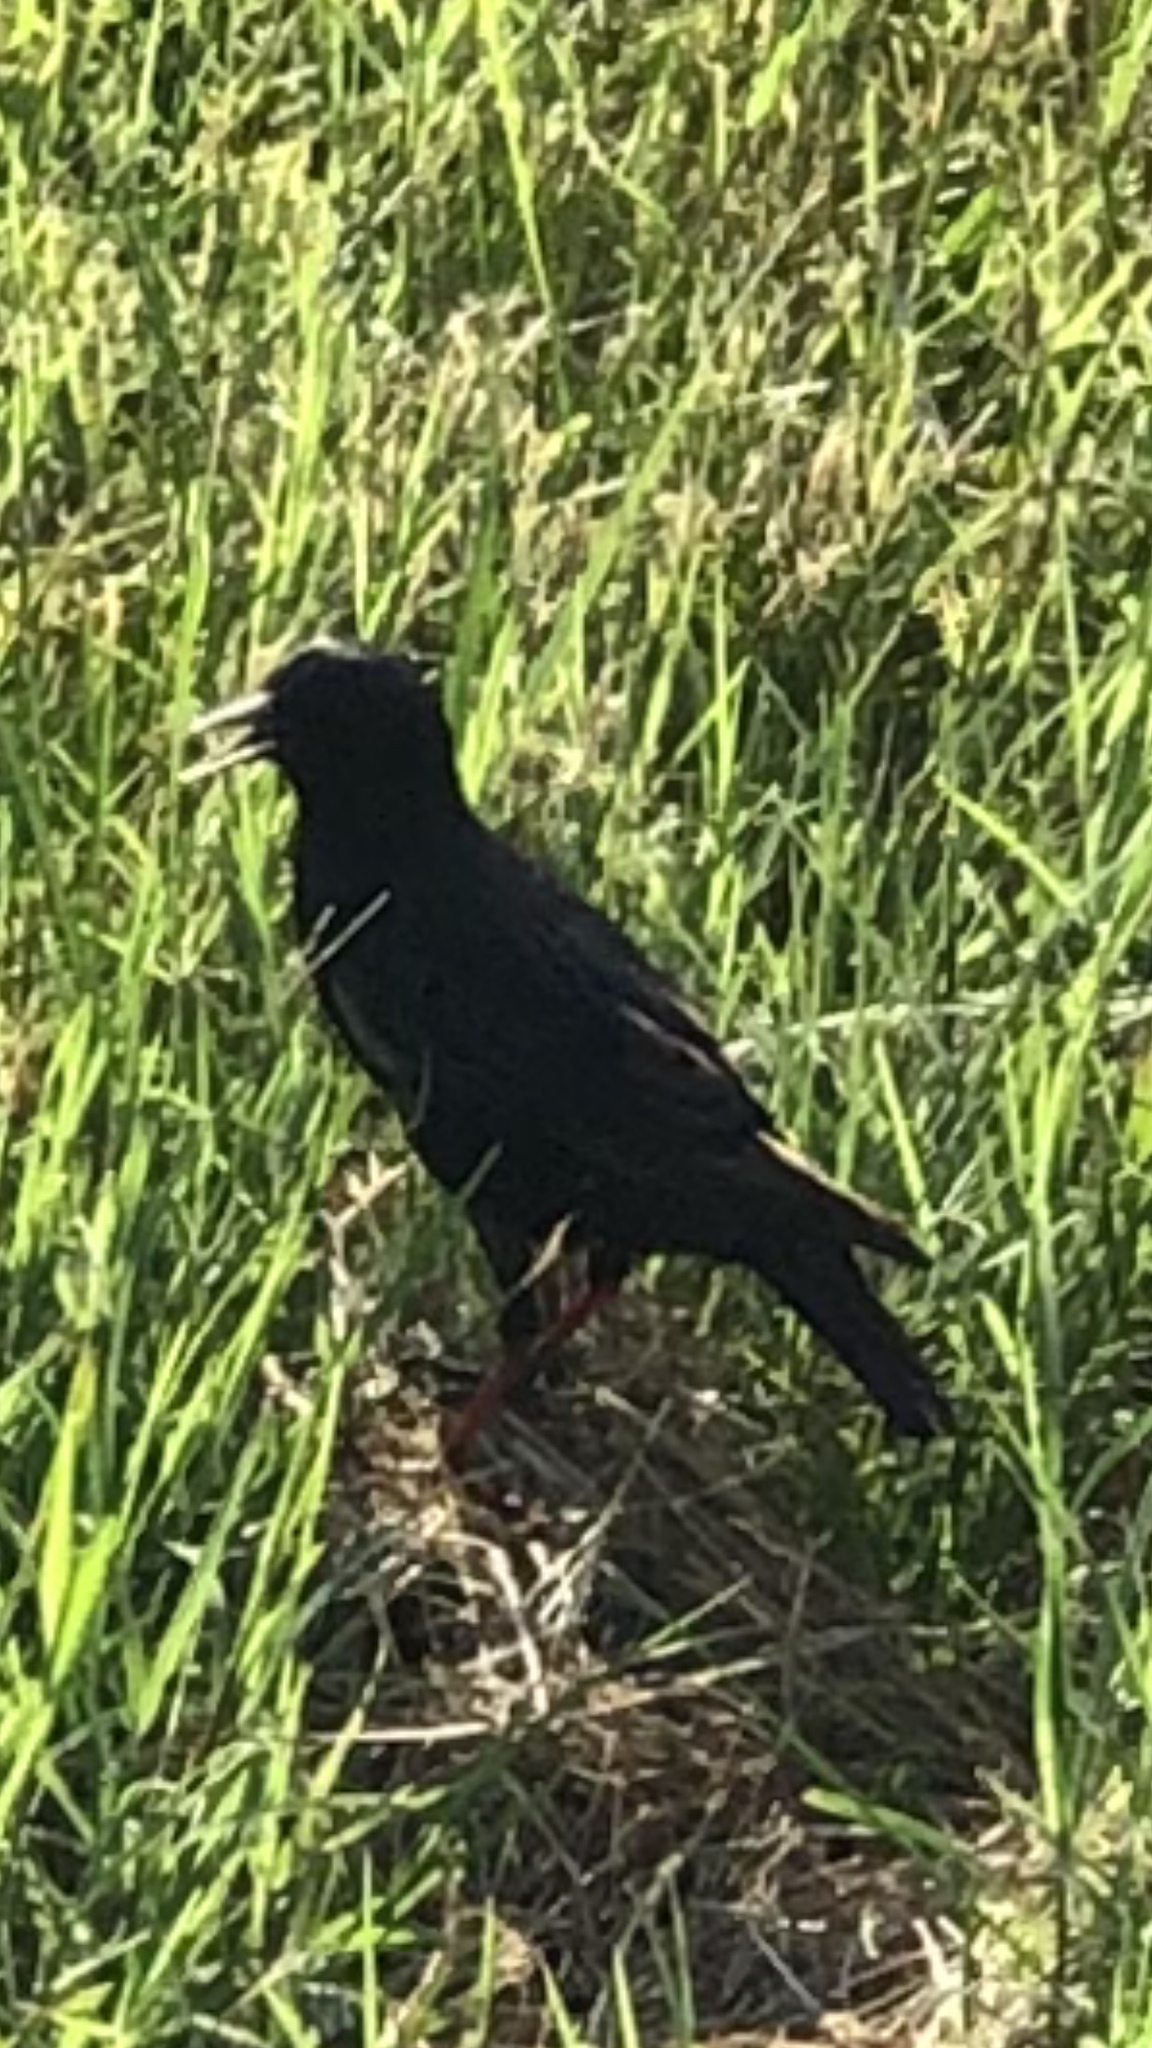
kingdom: Animalia
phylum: Chordata
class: Aves
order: Passeriformes
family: Sturnidae
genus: Sturnus
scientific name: Sturnus vulgaris
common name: Common starling
